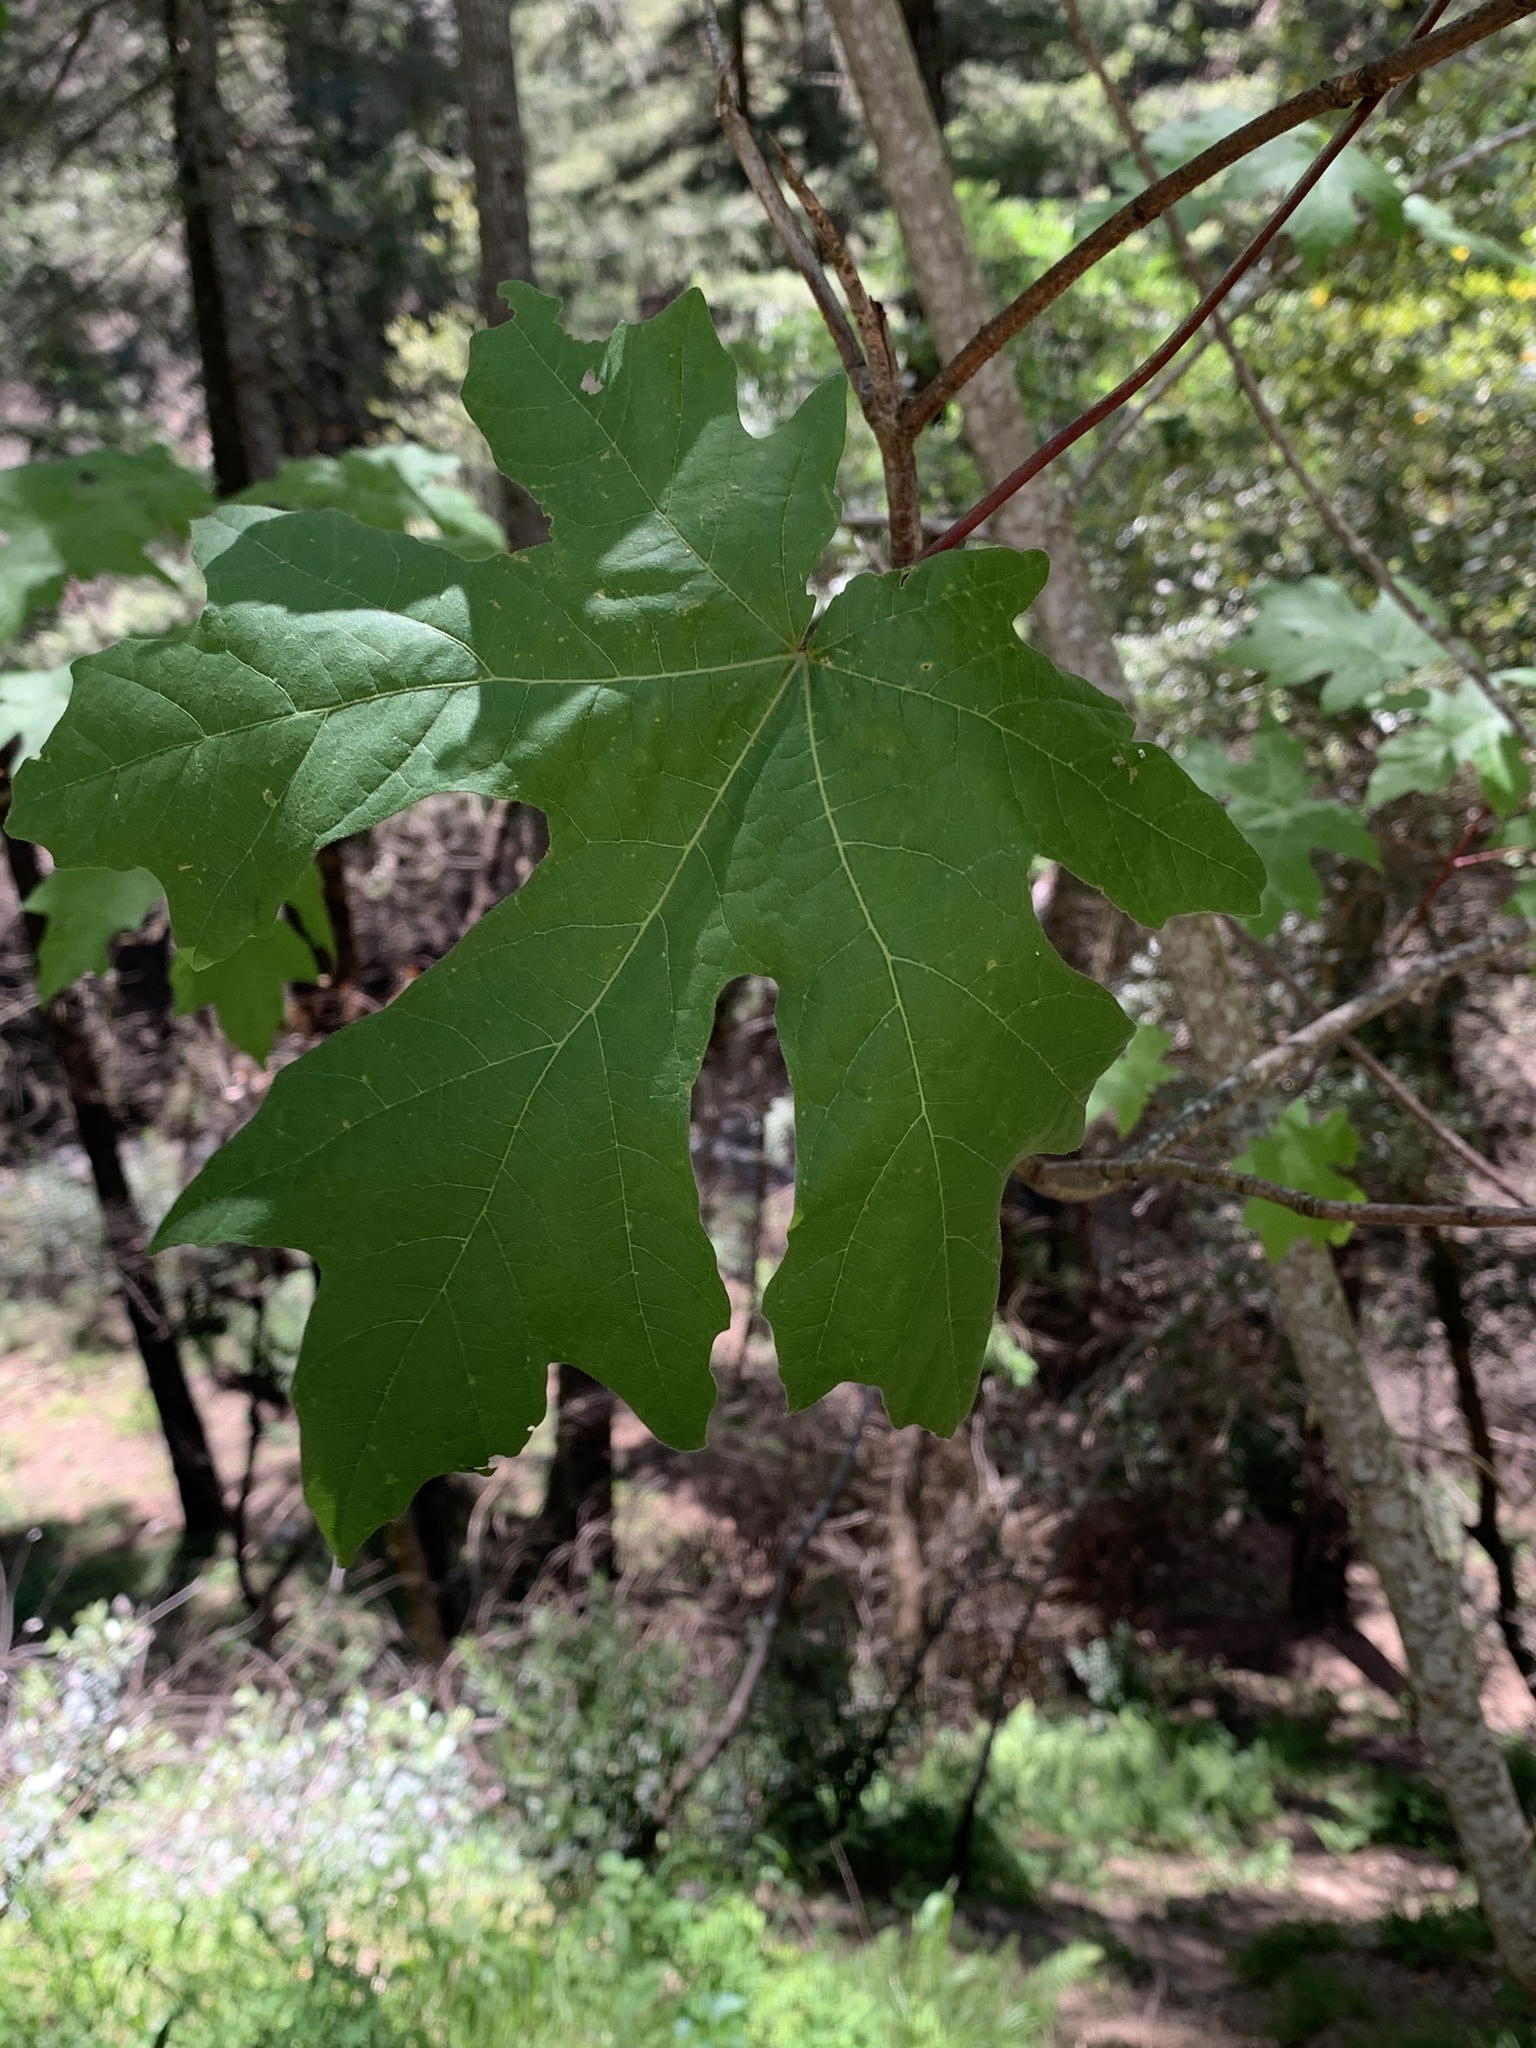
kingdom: Plantae
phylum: Tracheophyta
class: Magnoliopsida
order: Sapindales
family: Sapindaceae
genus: Acer
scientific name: Acer macrophyllum
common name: Oregon maple
